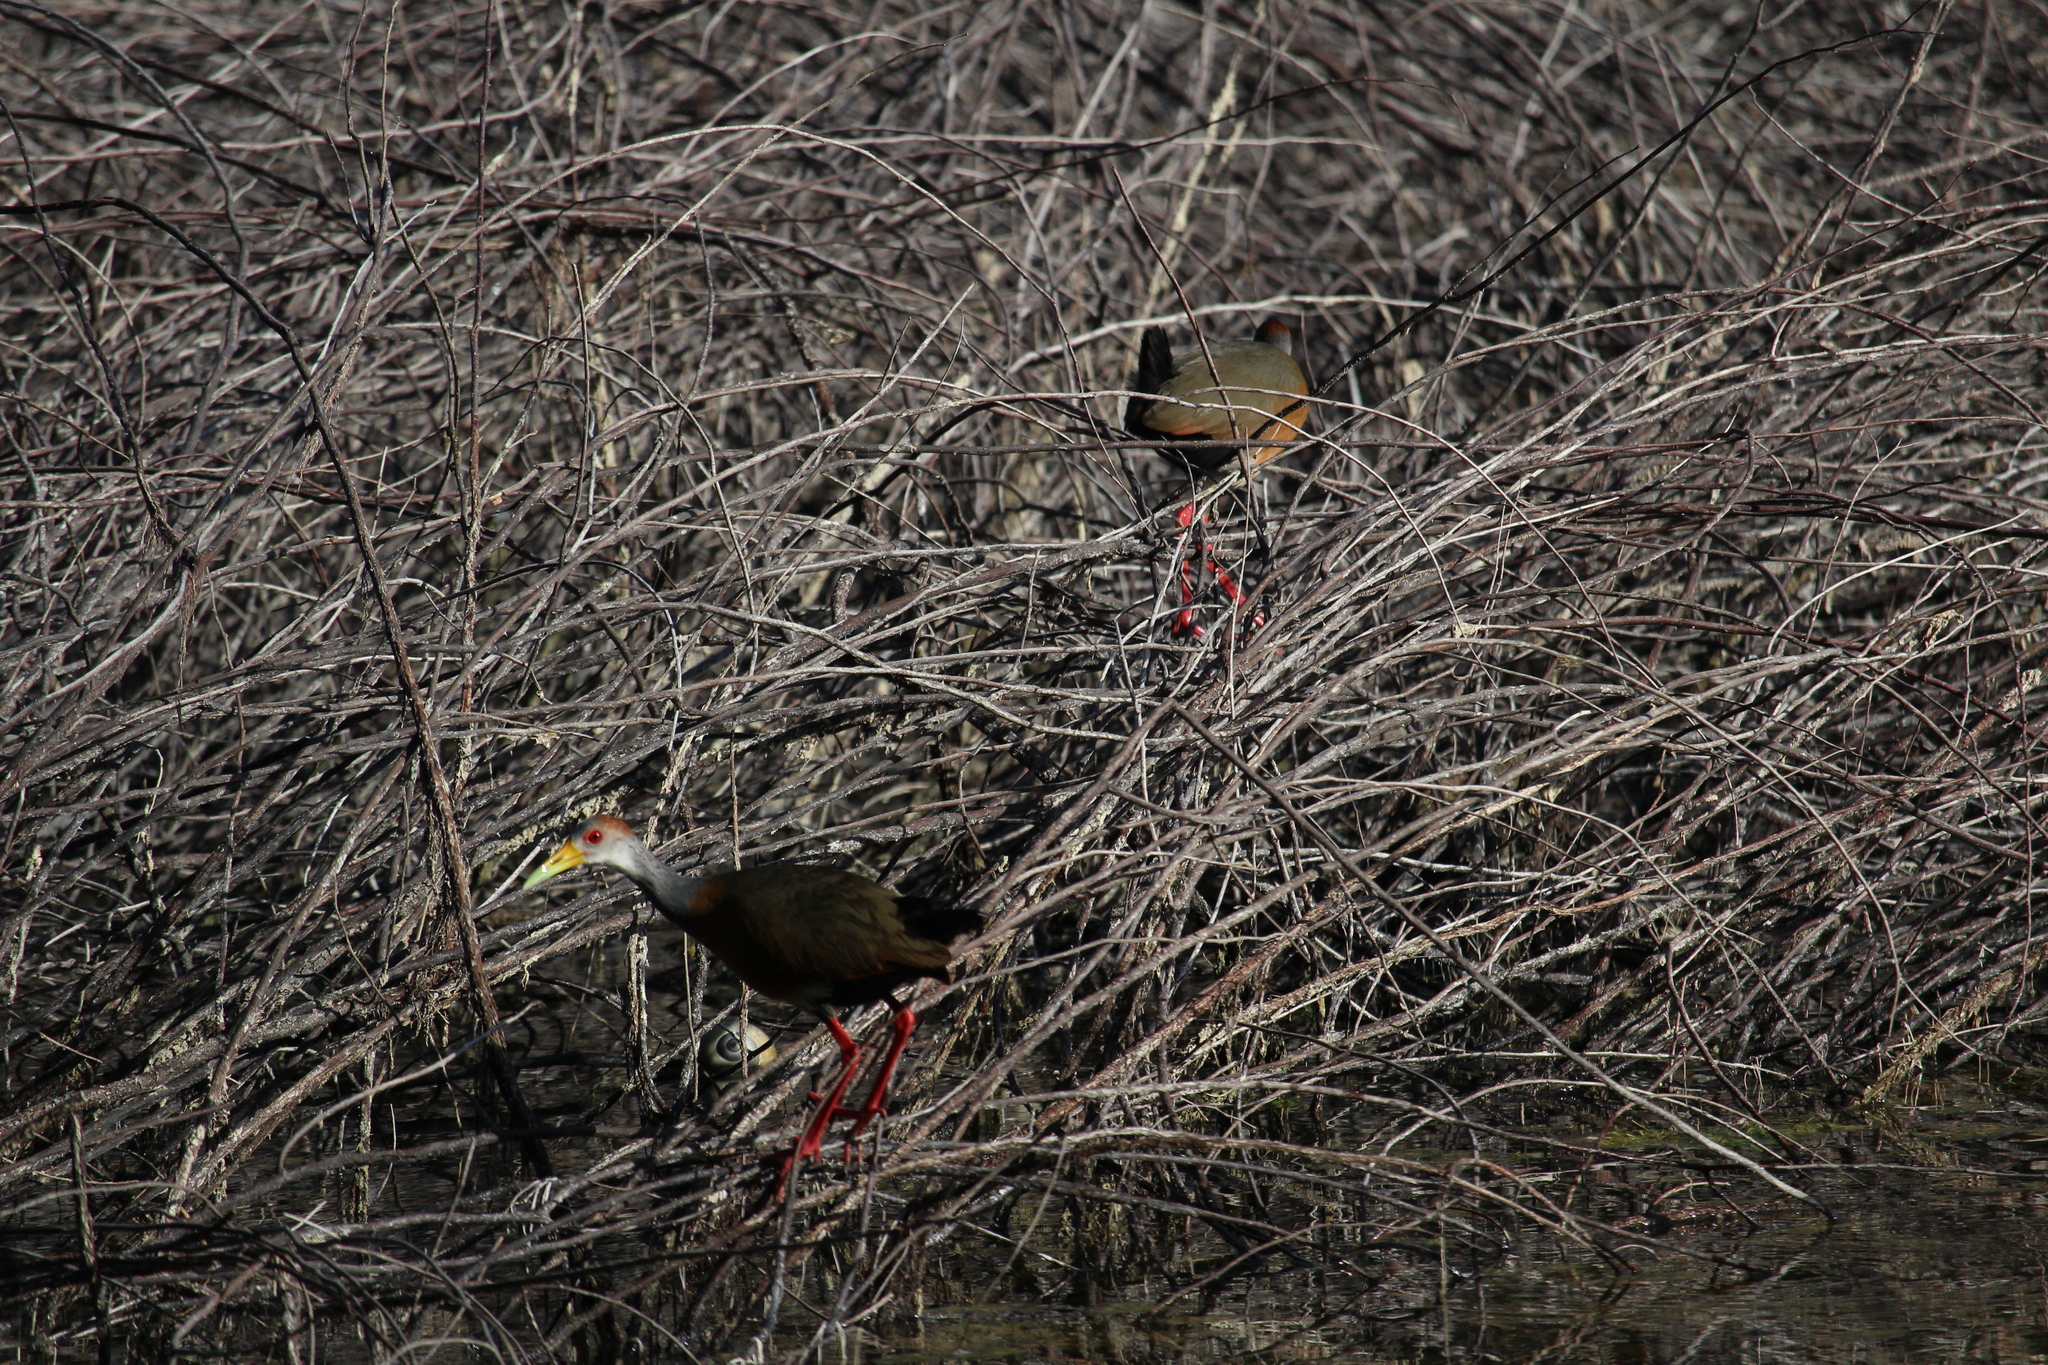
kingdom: Animalia
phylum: Chordata
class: Aves
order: Gruiformes
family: Rallidae
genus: Aramides
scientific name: Aramides albiventris
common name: Russet-naped wood-rail
